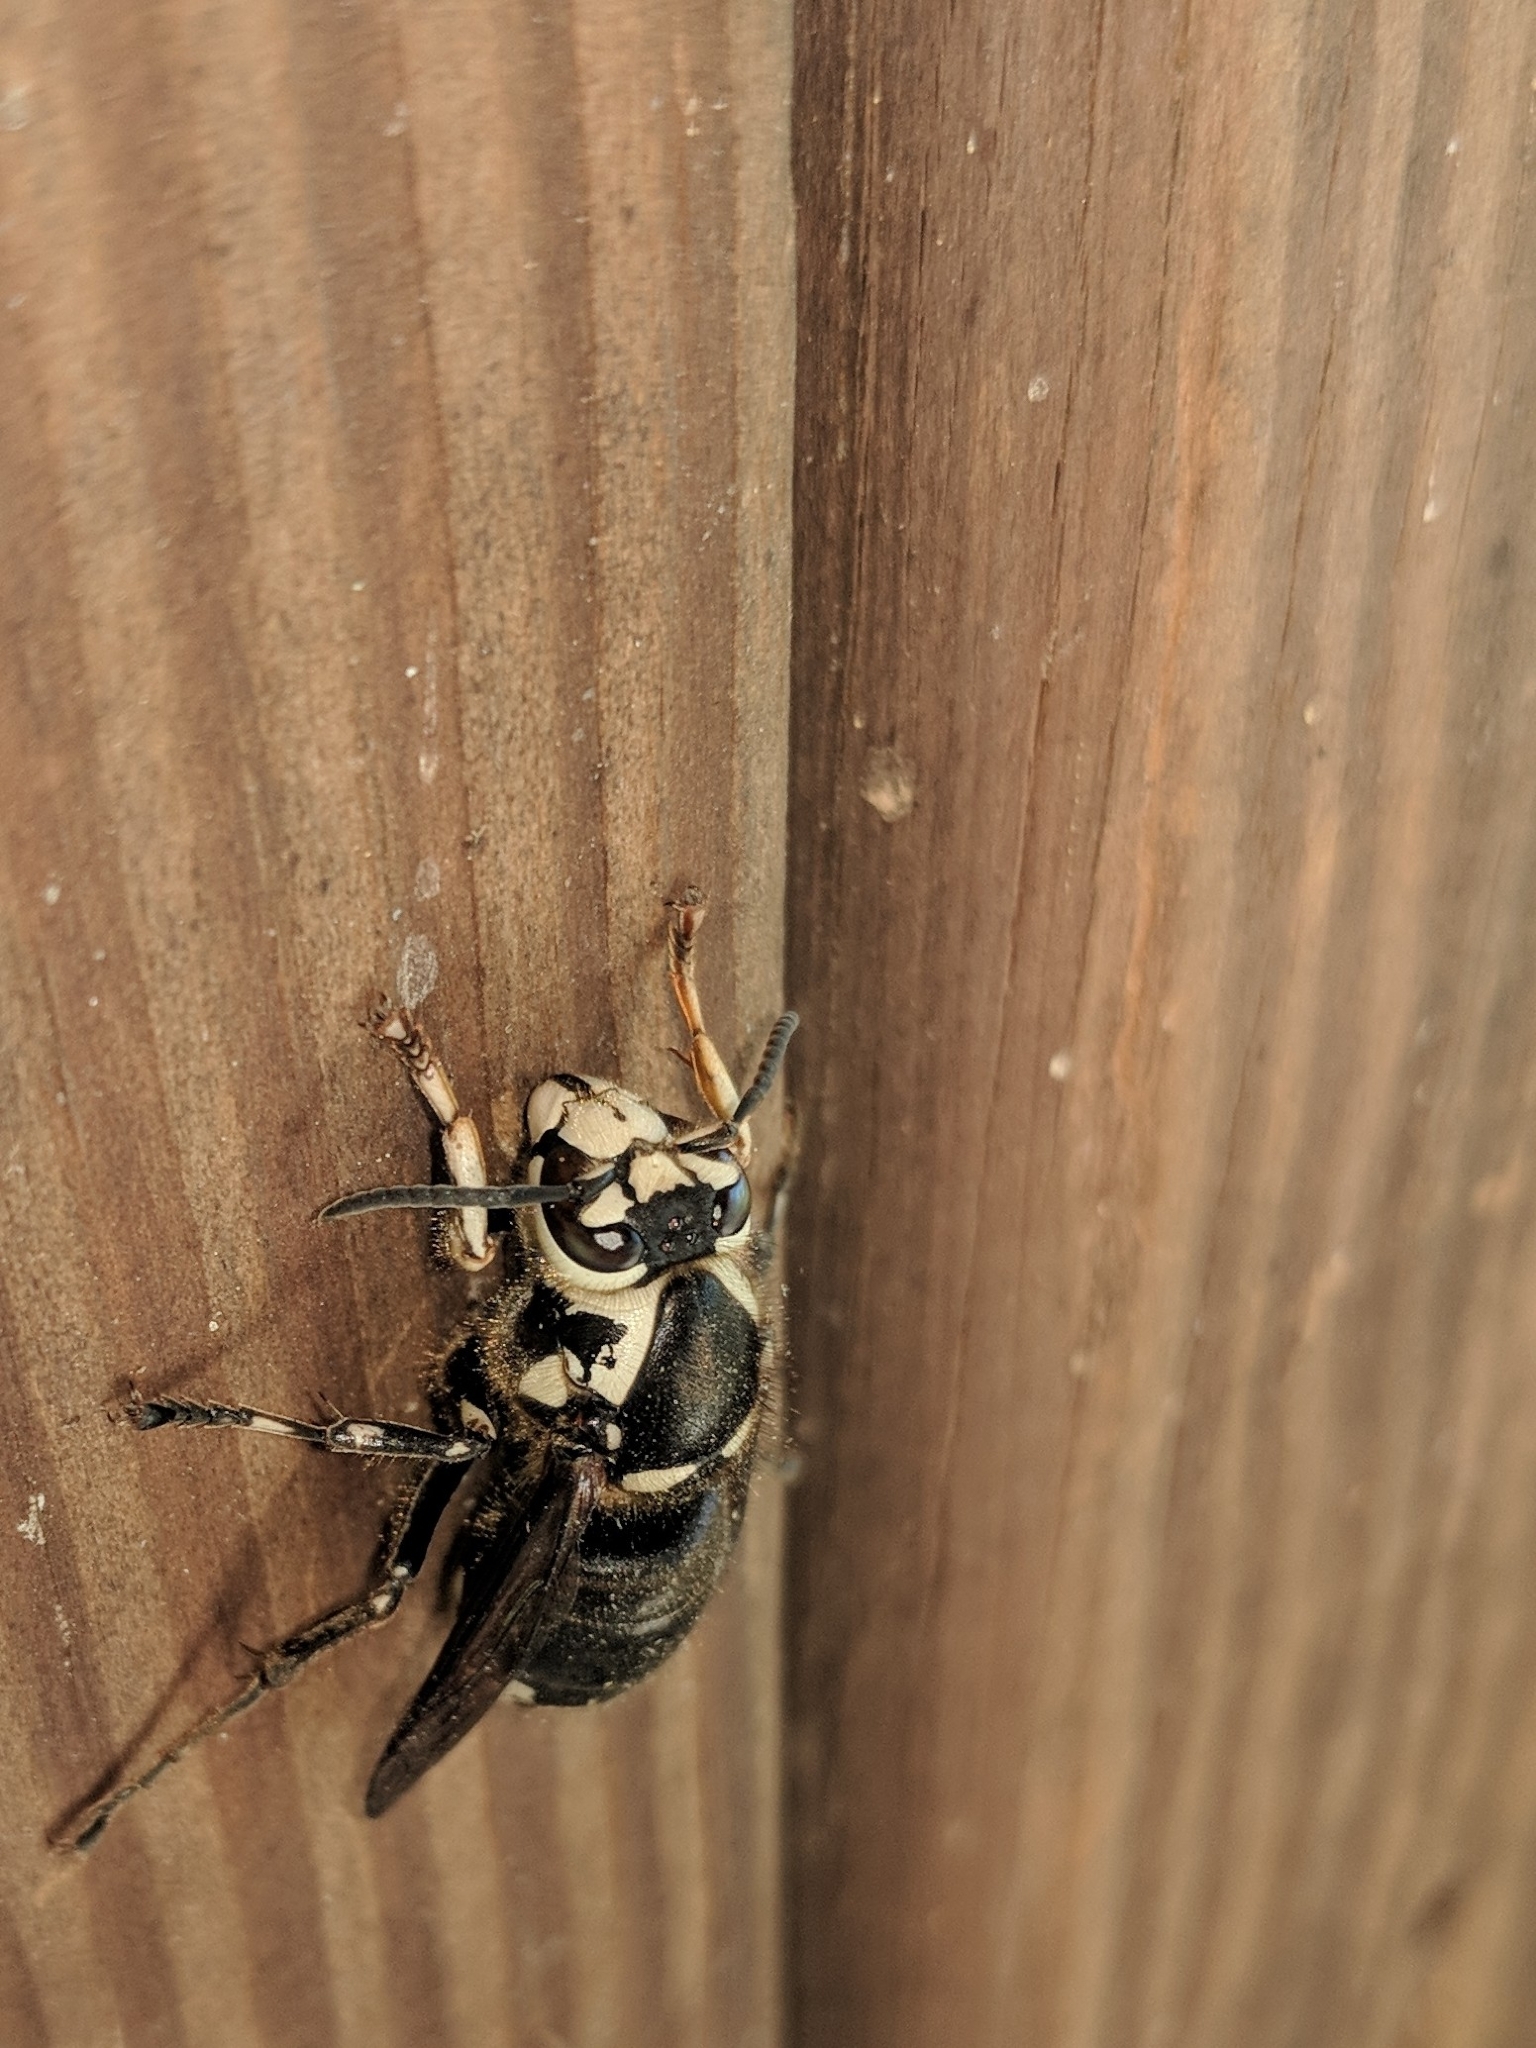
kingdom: Animalia
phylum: Arthropoda
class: Insecta
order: Hymenoptera
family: Vespidae
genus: Dolichovespula
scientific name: Dolichovespula maculata
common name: Bald-faced hornet
